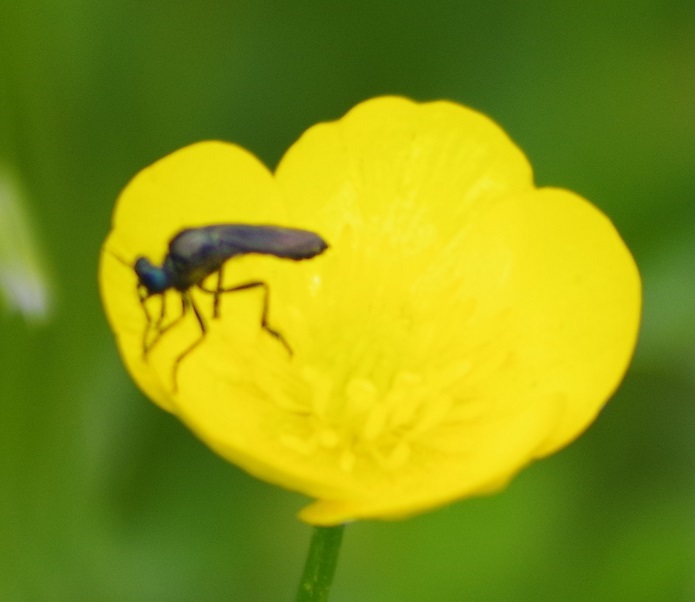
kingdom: Animalia
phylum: Arthropoda
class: Insecta
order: Diptera
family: Asilidae
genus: Dioctria
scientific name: Dioctria atricapilla
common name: Violet black-legged
